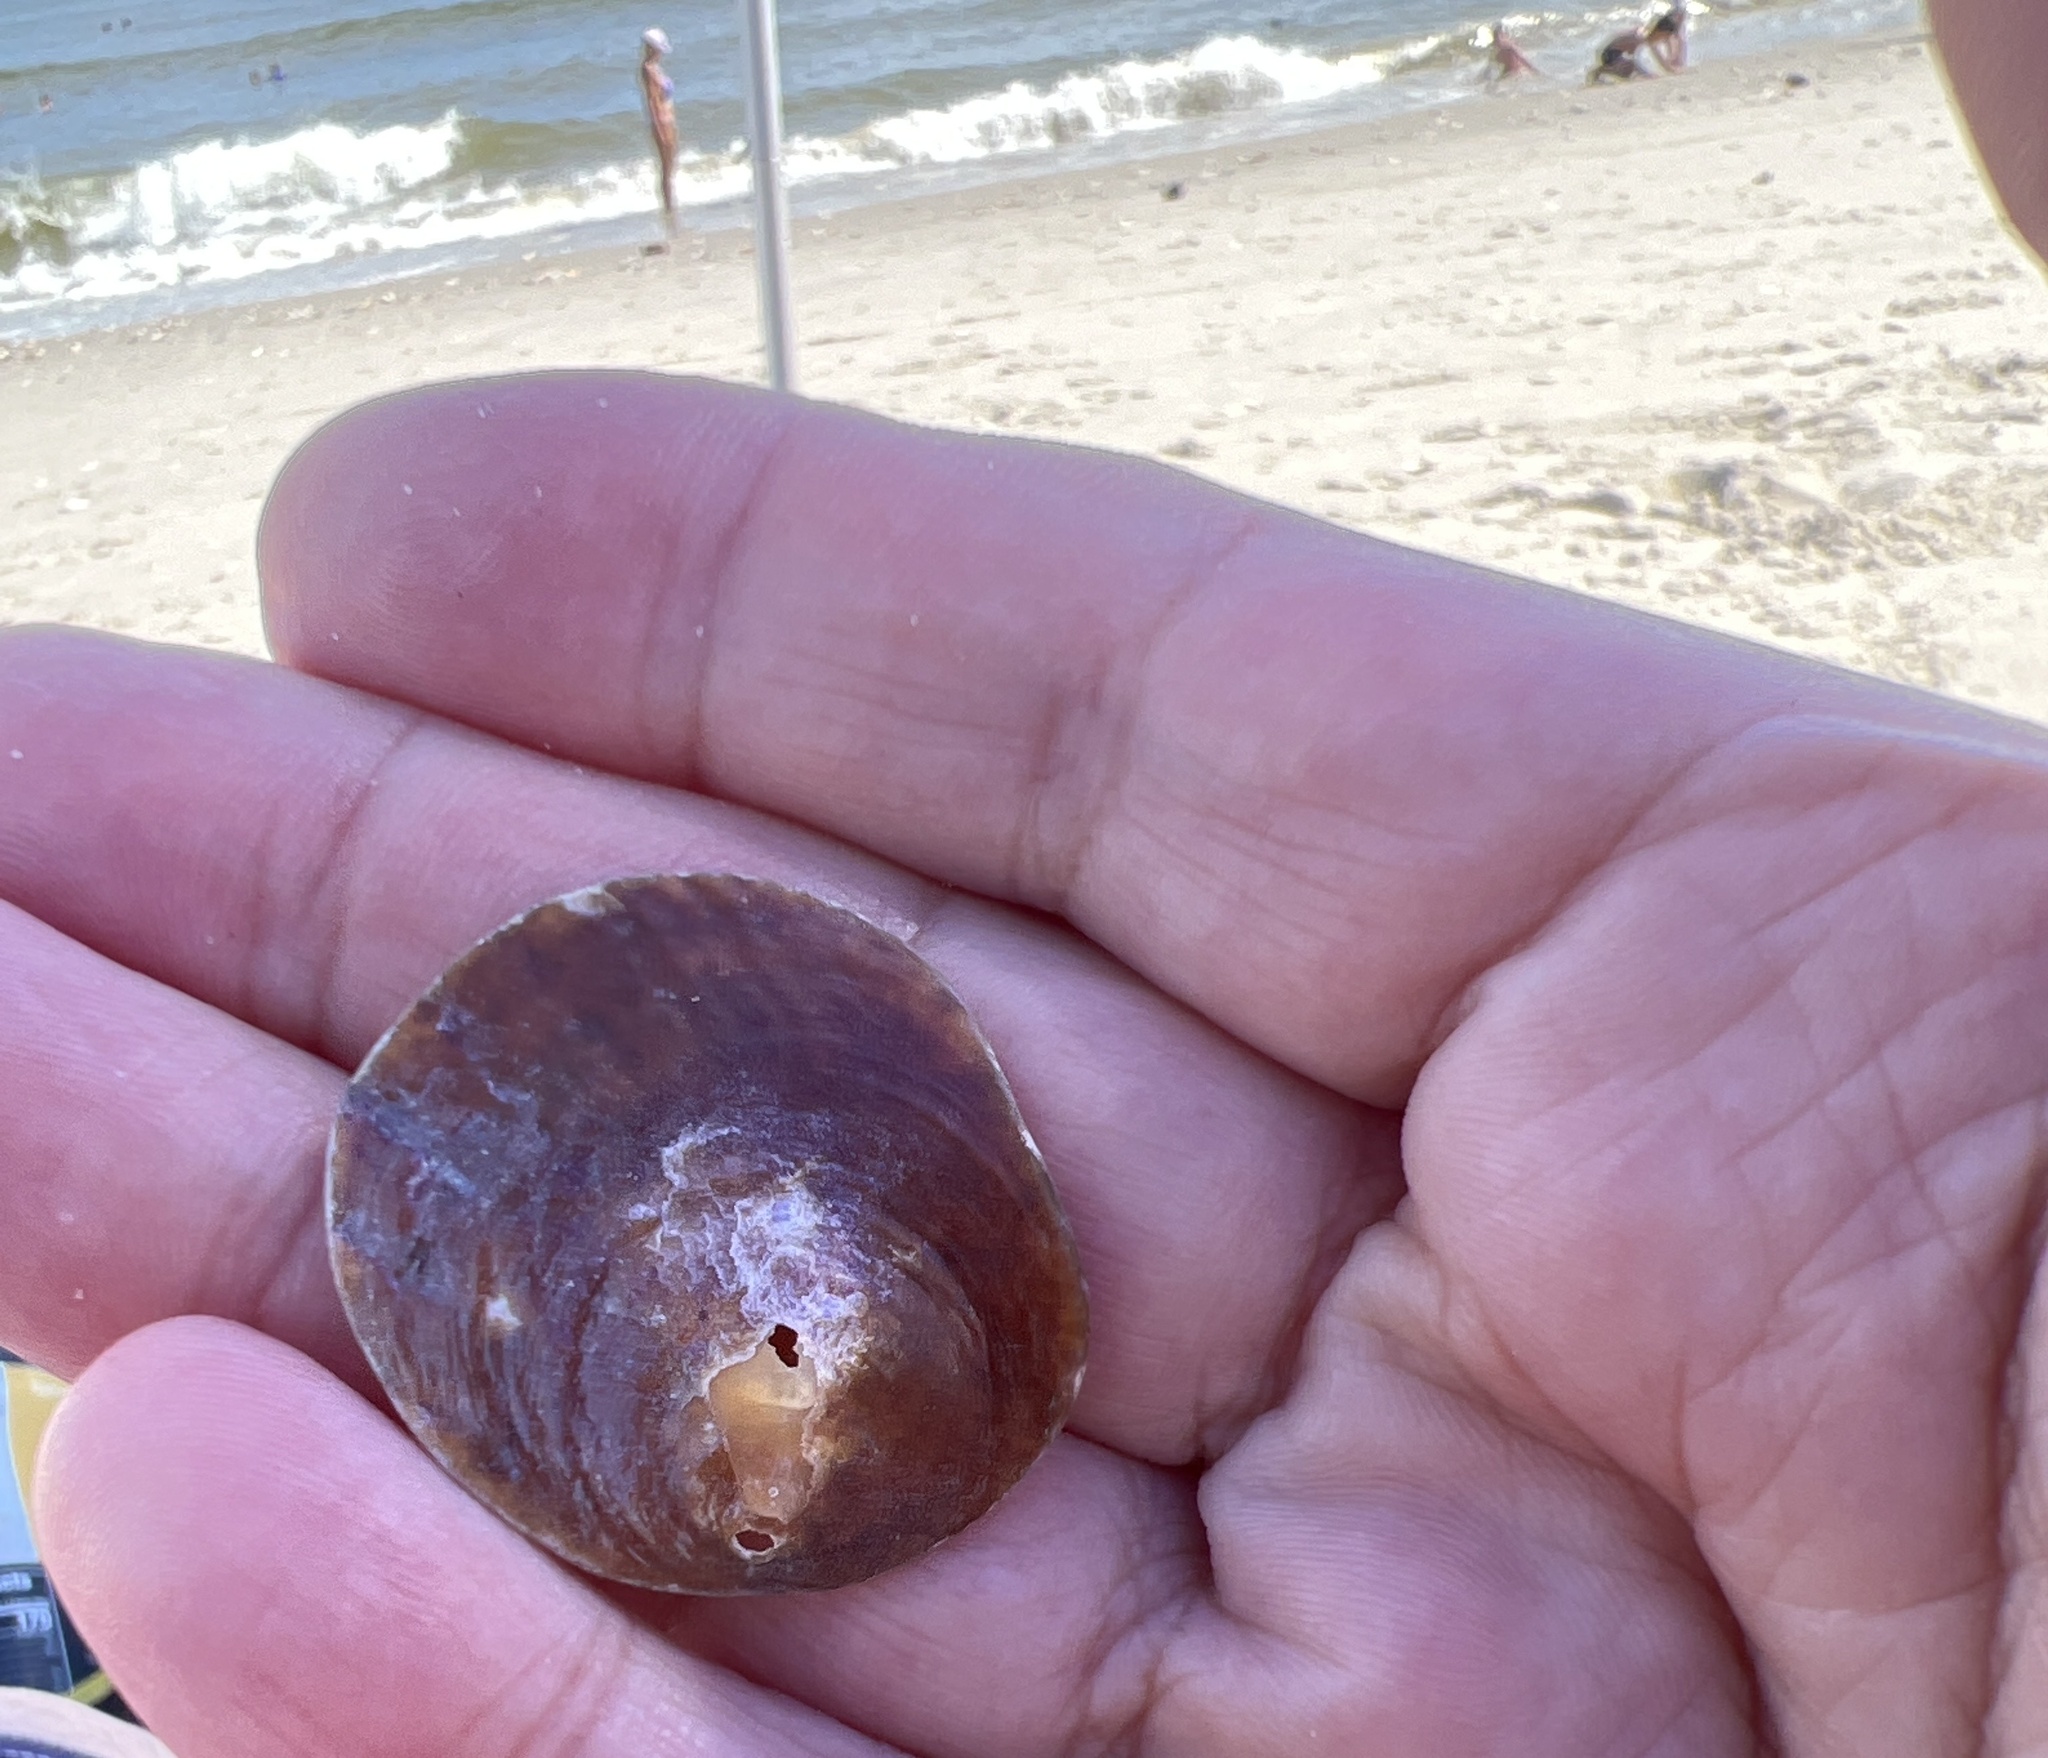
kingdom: Animalia
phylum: Mollusca
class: Bivalvia
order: Pectinida
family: Anomiidae
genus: Anomia
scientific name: Anomia simplex
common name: Common jingle shell
